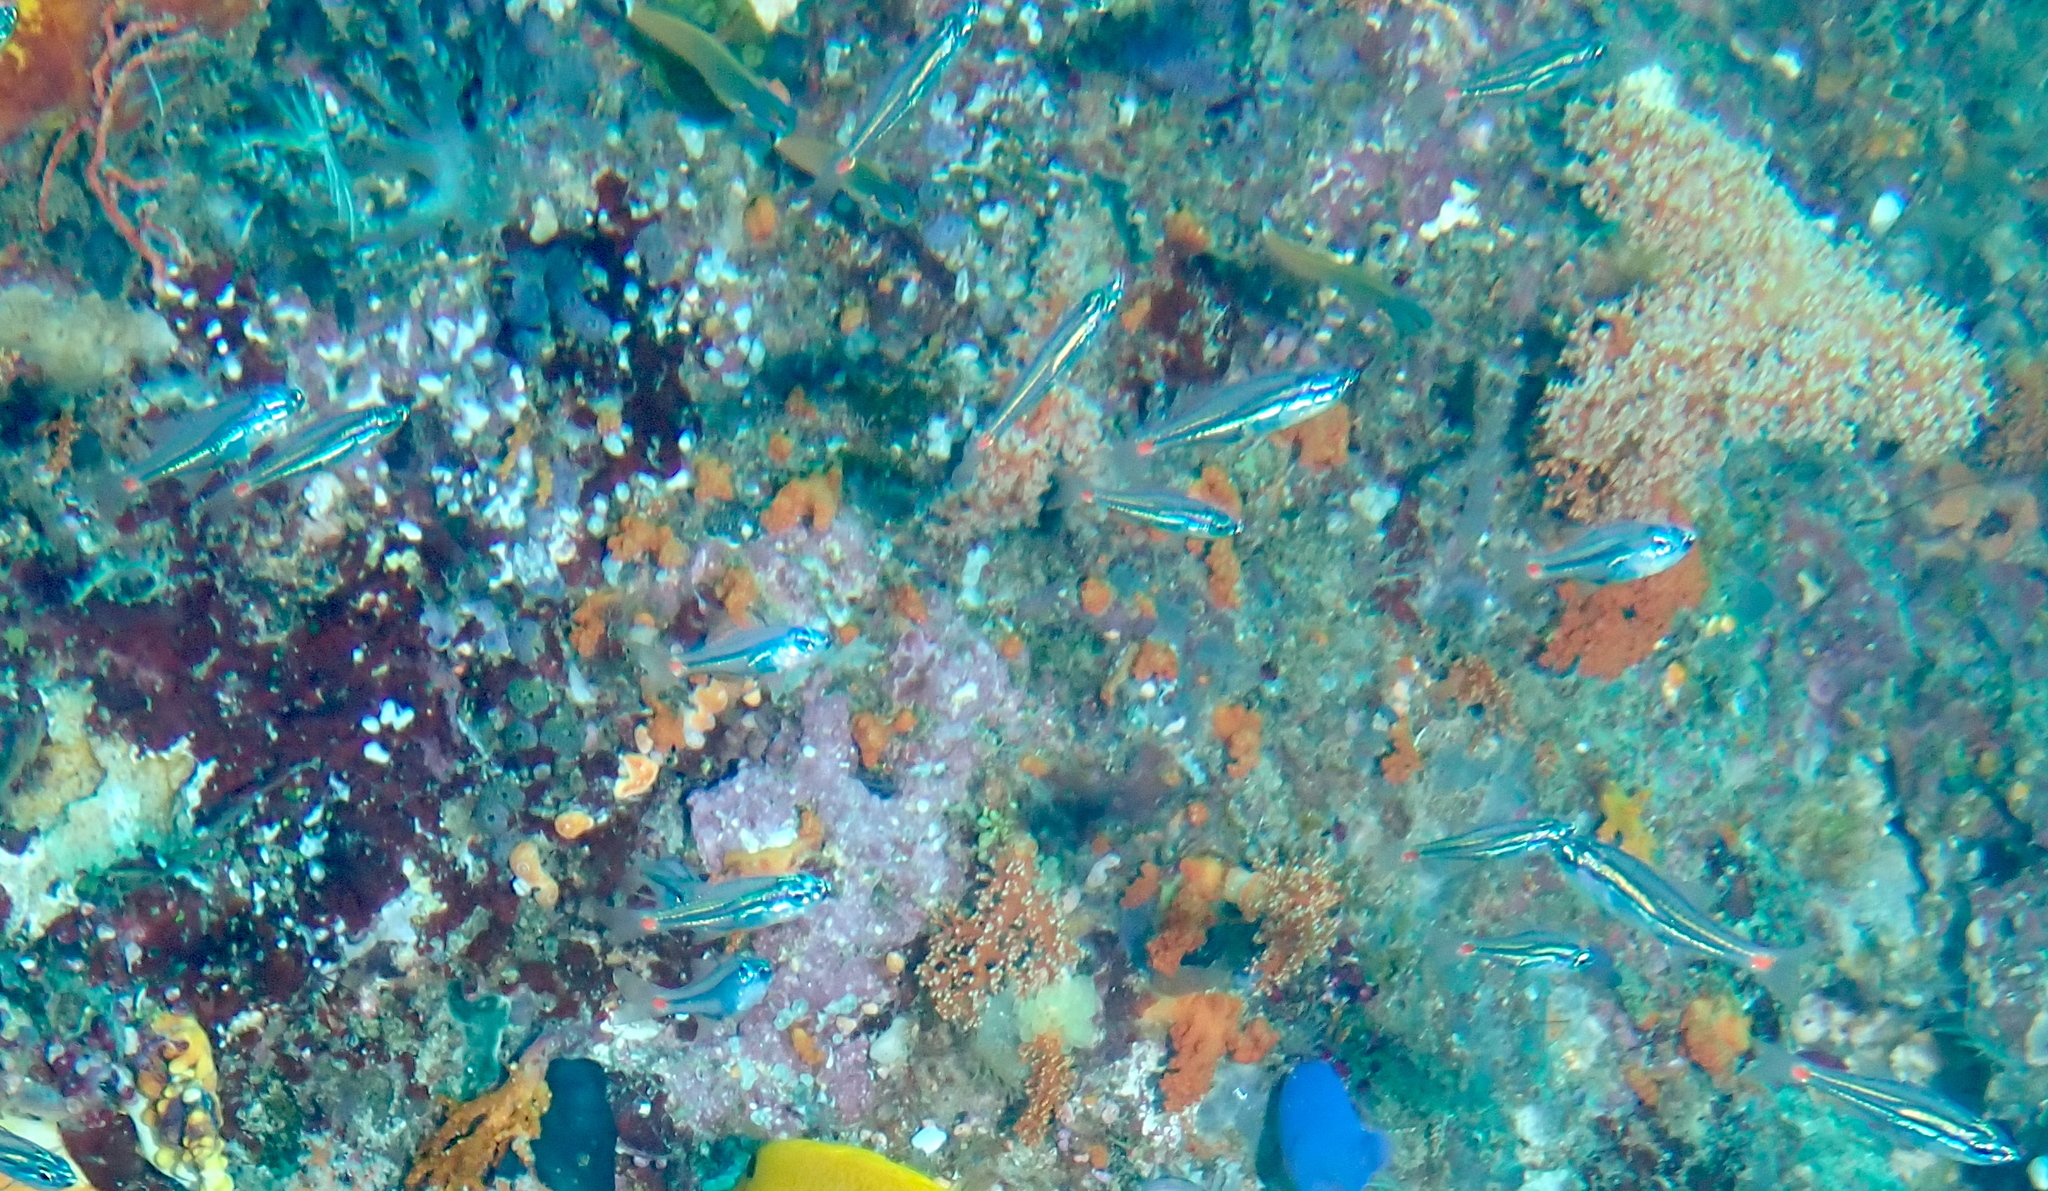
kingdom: Animalia
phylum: Chordata
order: Perciformes
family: Apogonidae
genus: Ostorhinchus
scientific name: Ostorhinchus parvulus
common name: Red-spot cardinalfish
